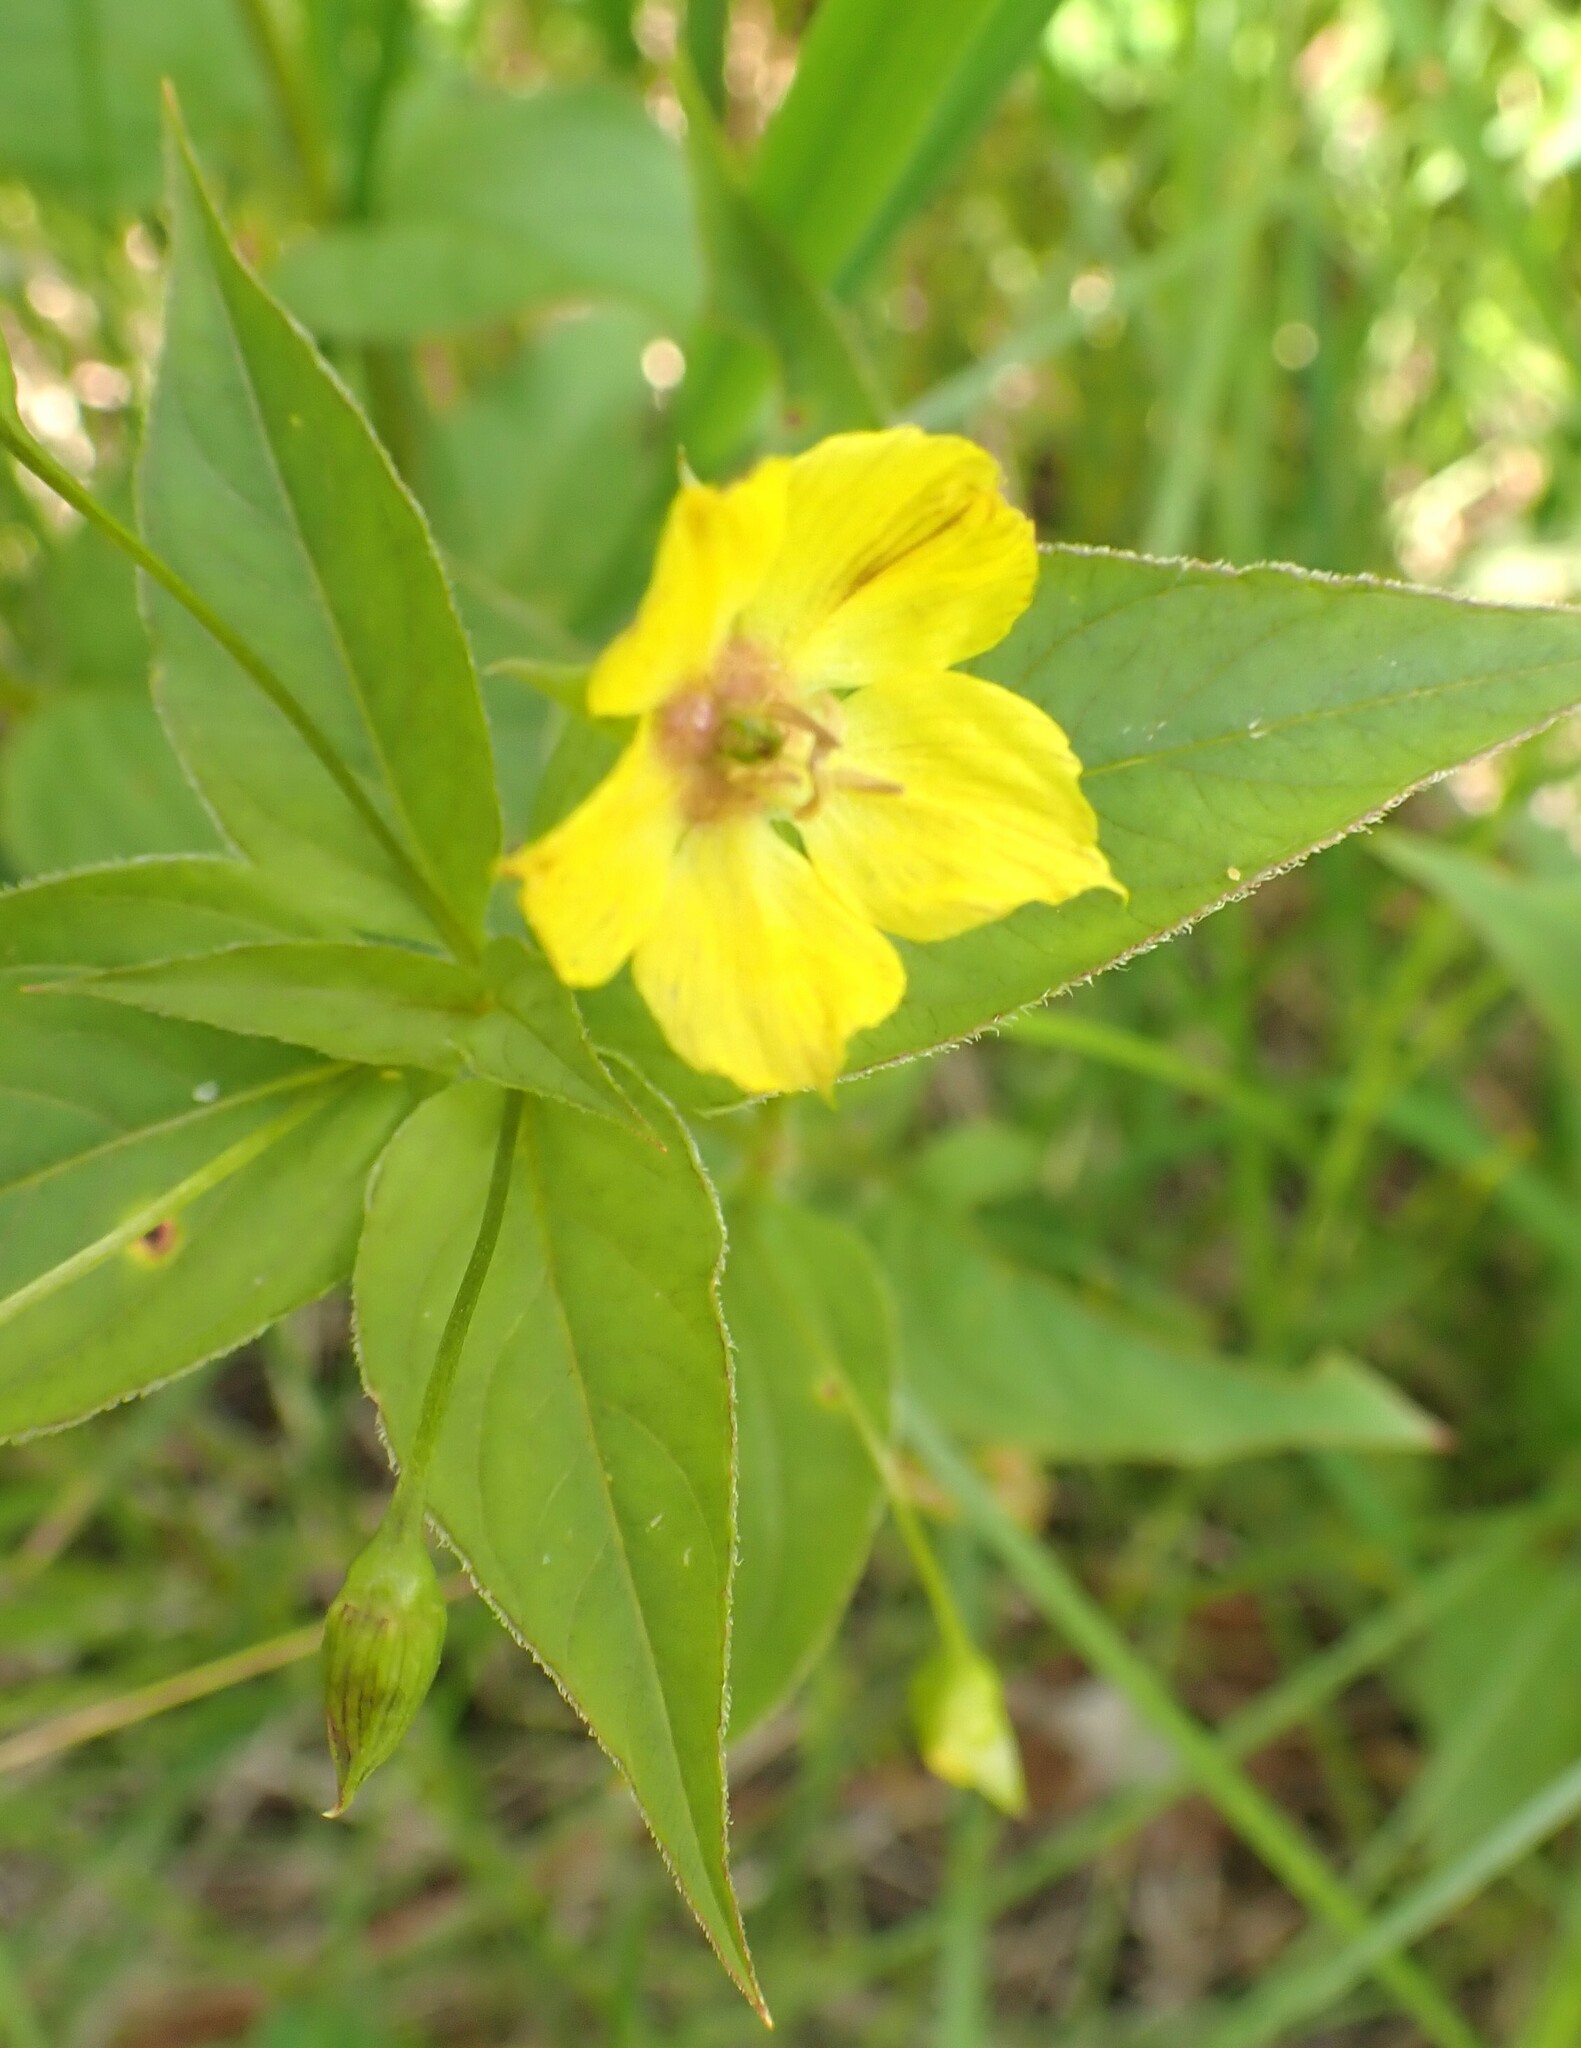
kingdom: Plantae
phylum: Tracheophyta
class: Magnoliopsida
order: Ericales
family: Primulaceae
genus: Lysimachia
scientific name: Lysimachia ciliata
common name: Fringed loosestrife
